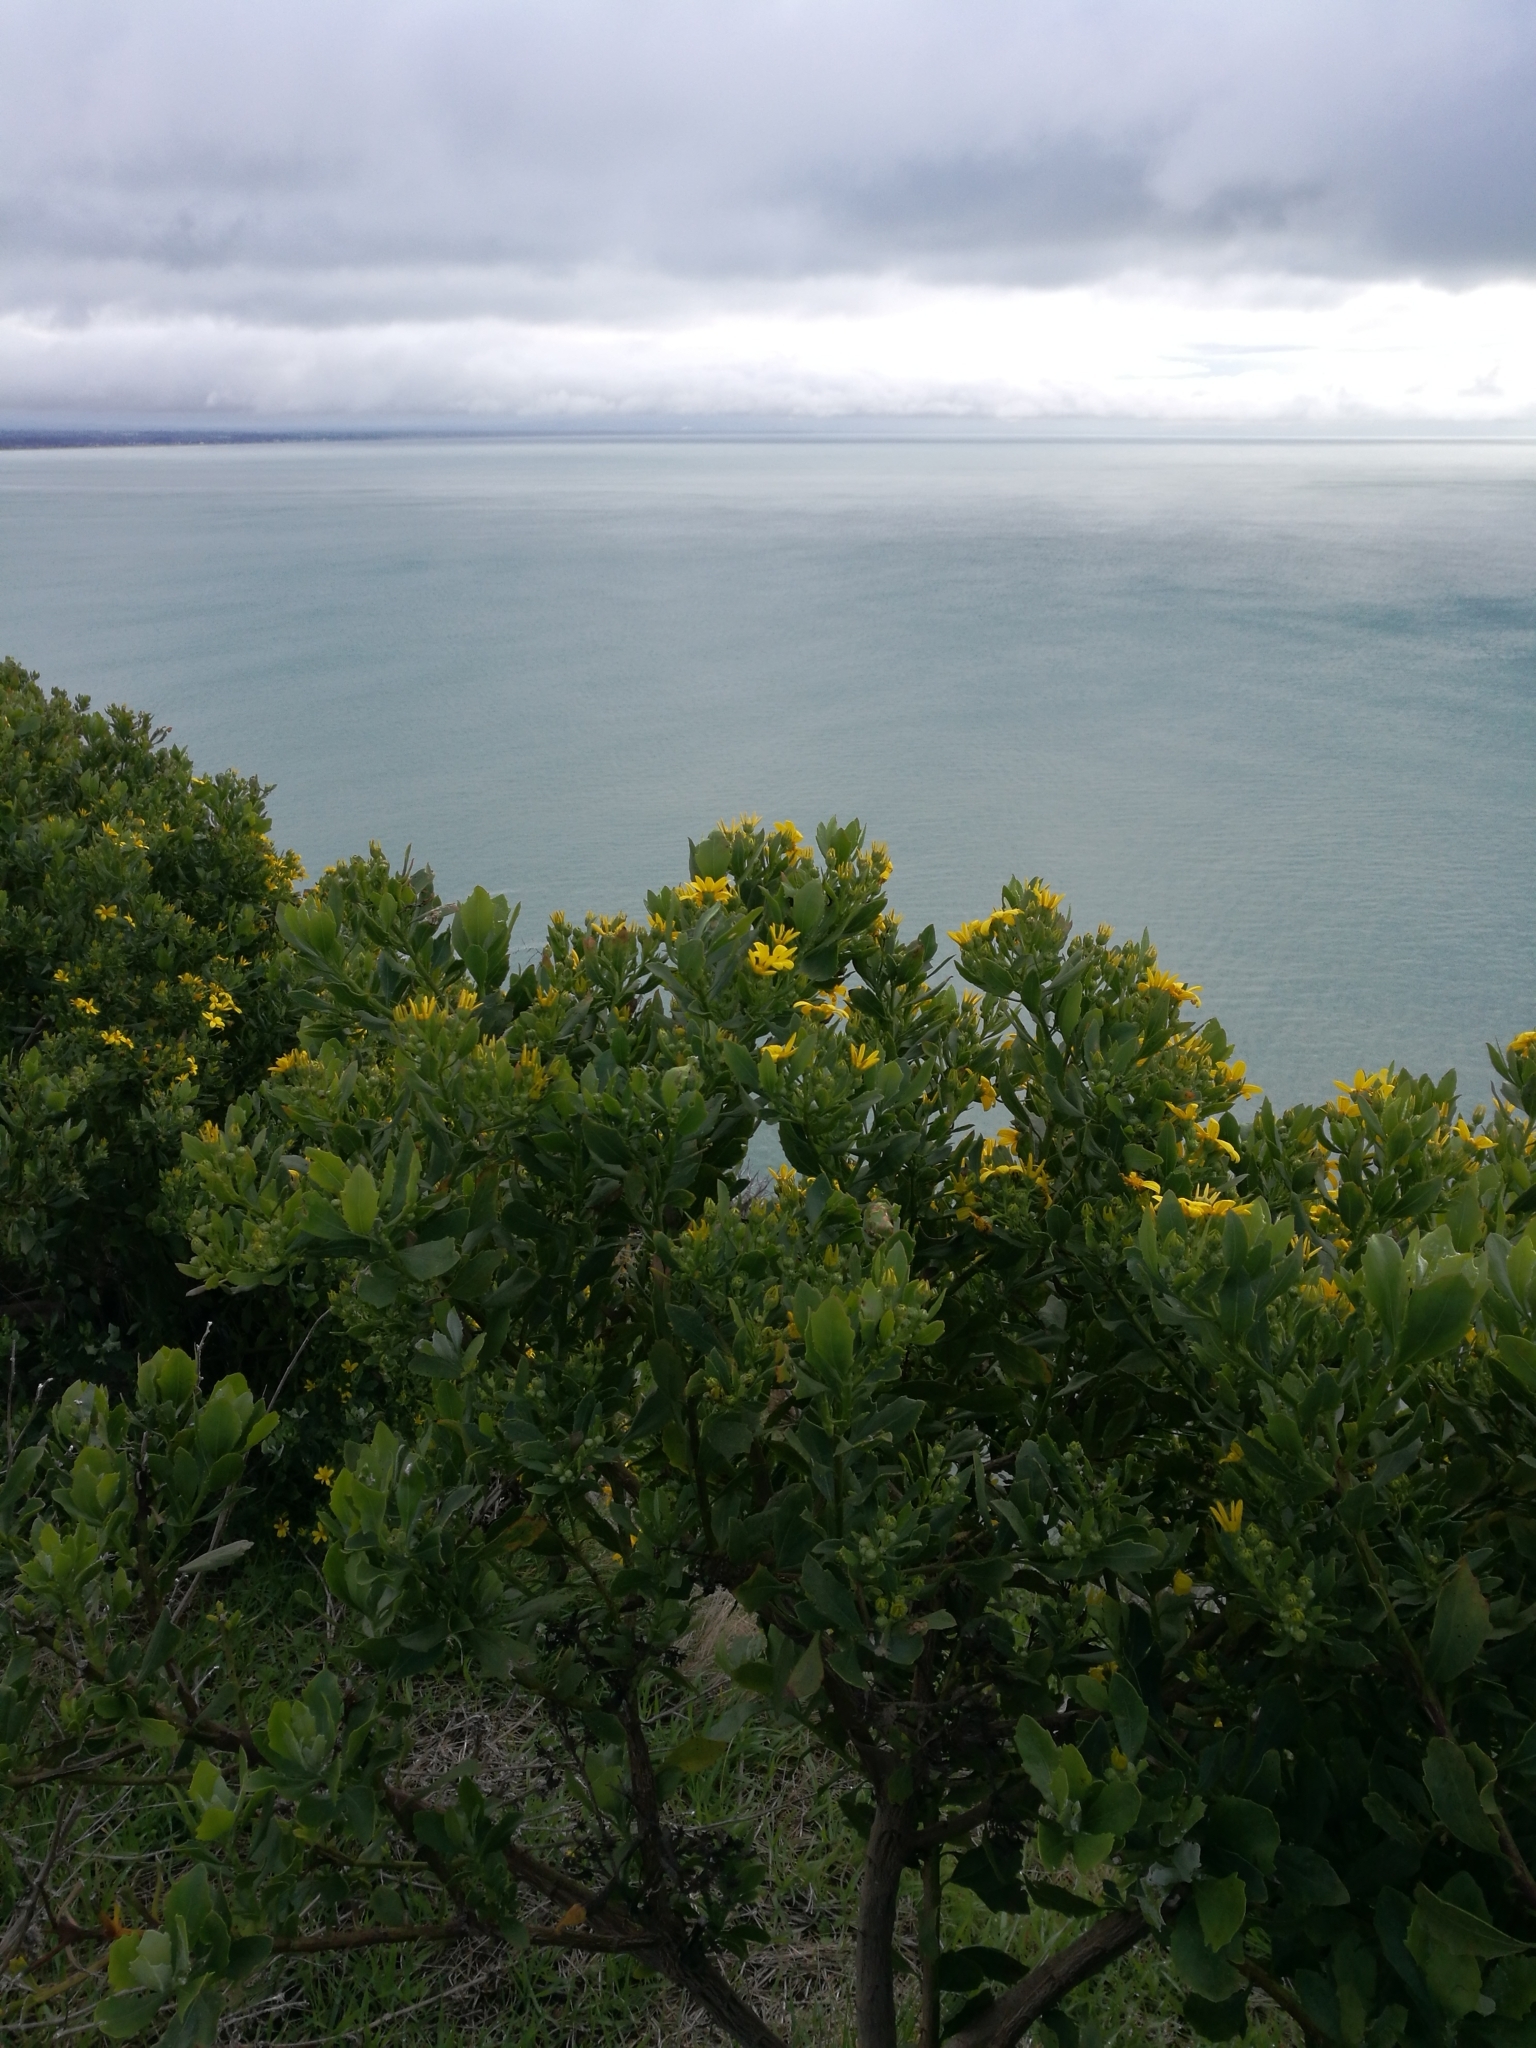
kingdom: Plantae
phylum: Tracheophyta
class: Magnoliopsida
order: Asterales
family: Asteraceae
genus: Osteospermum
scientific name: Osteospermum moniliferum
